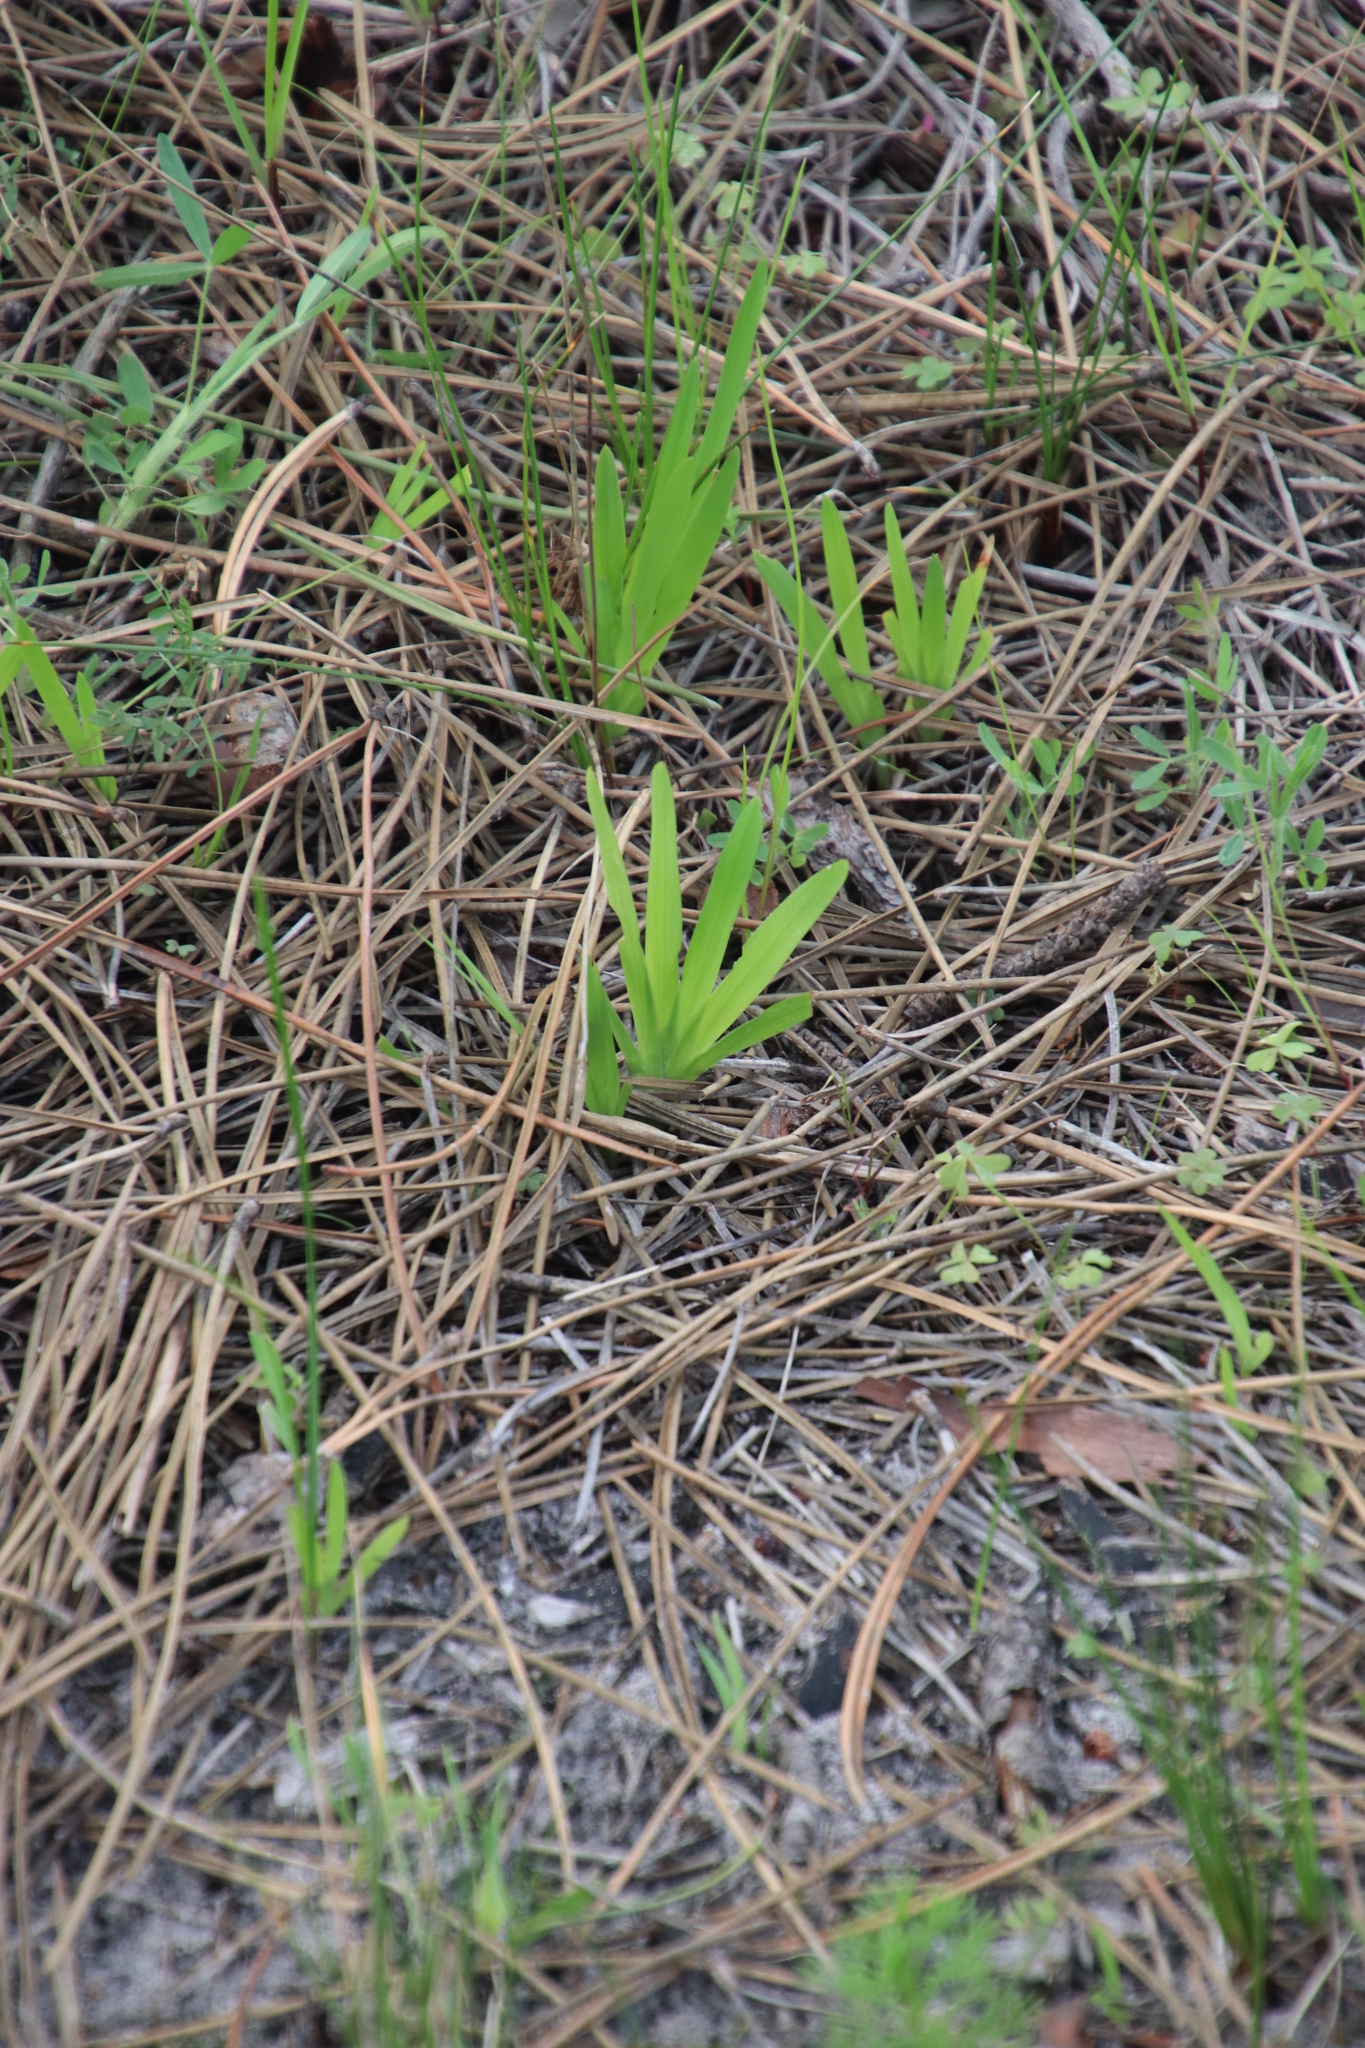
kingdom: Plantae
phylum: Tracheophyta
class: Liliopsida
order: Asparagales
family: Iridaceae
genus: Sparaxis
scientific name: Sparaxis bulbifera
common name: Harlequin-flower
